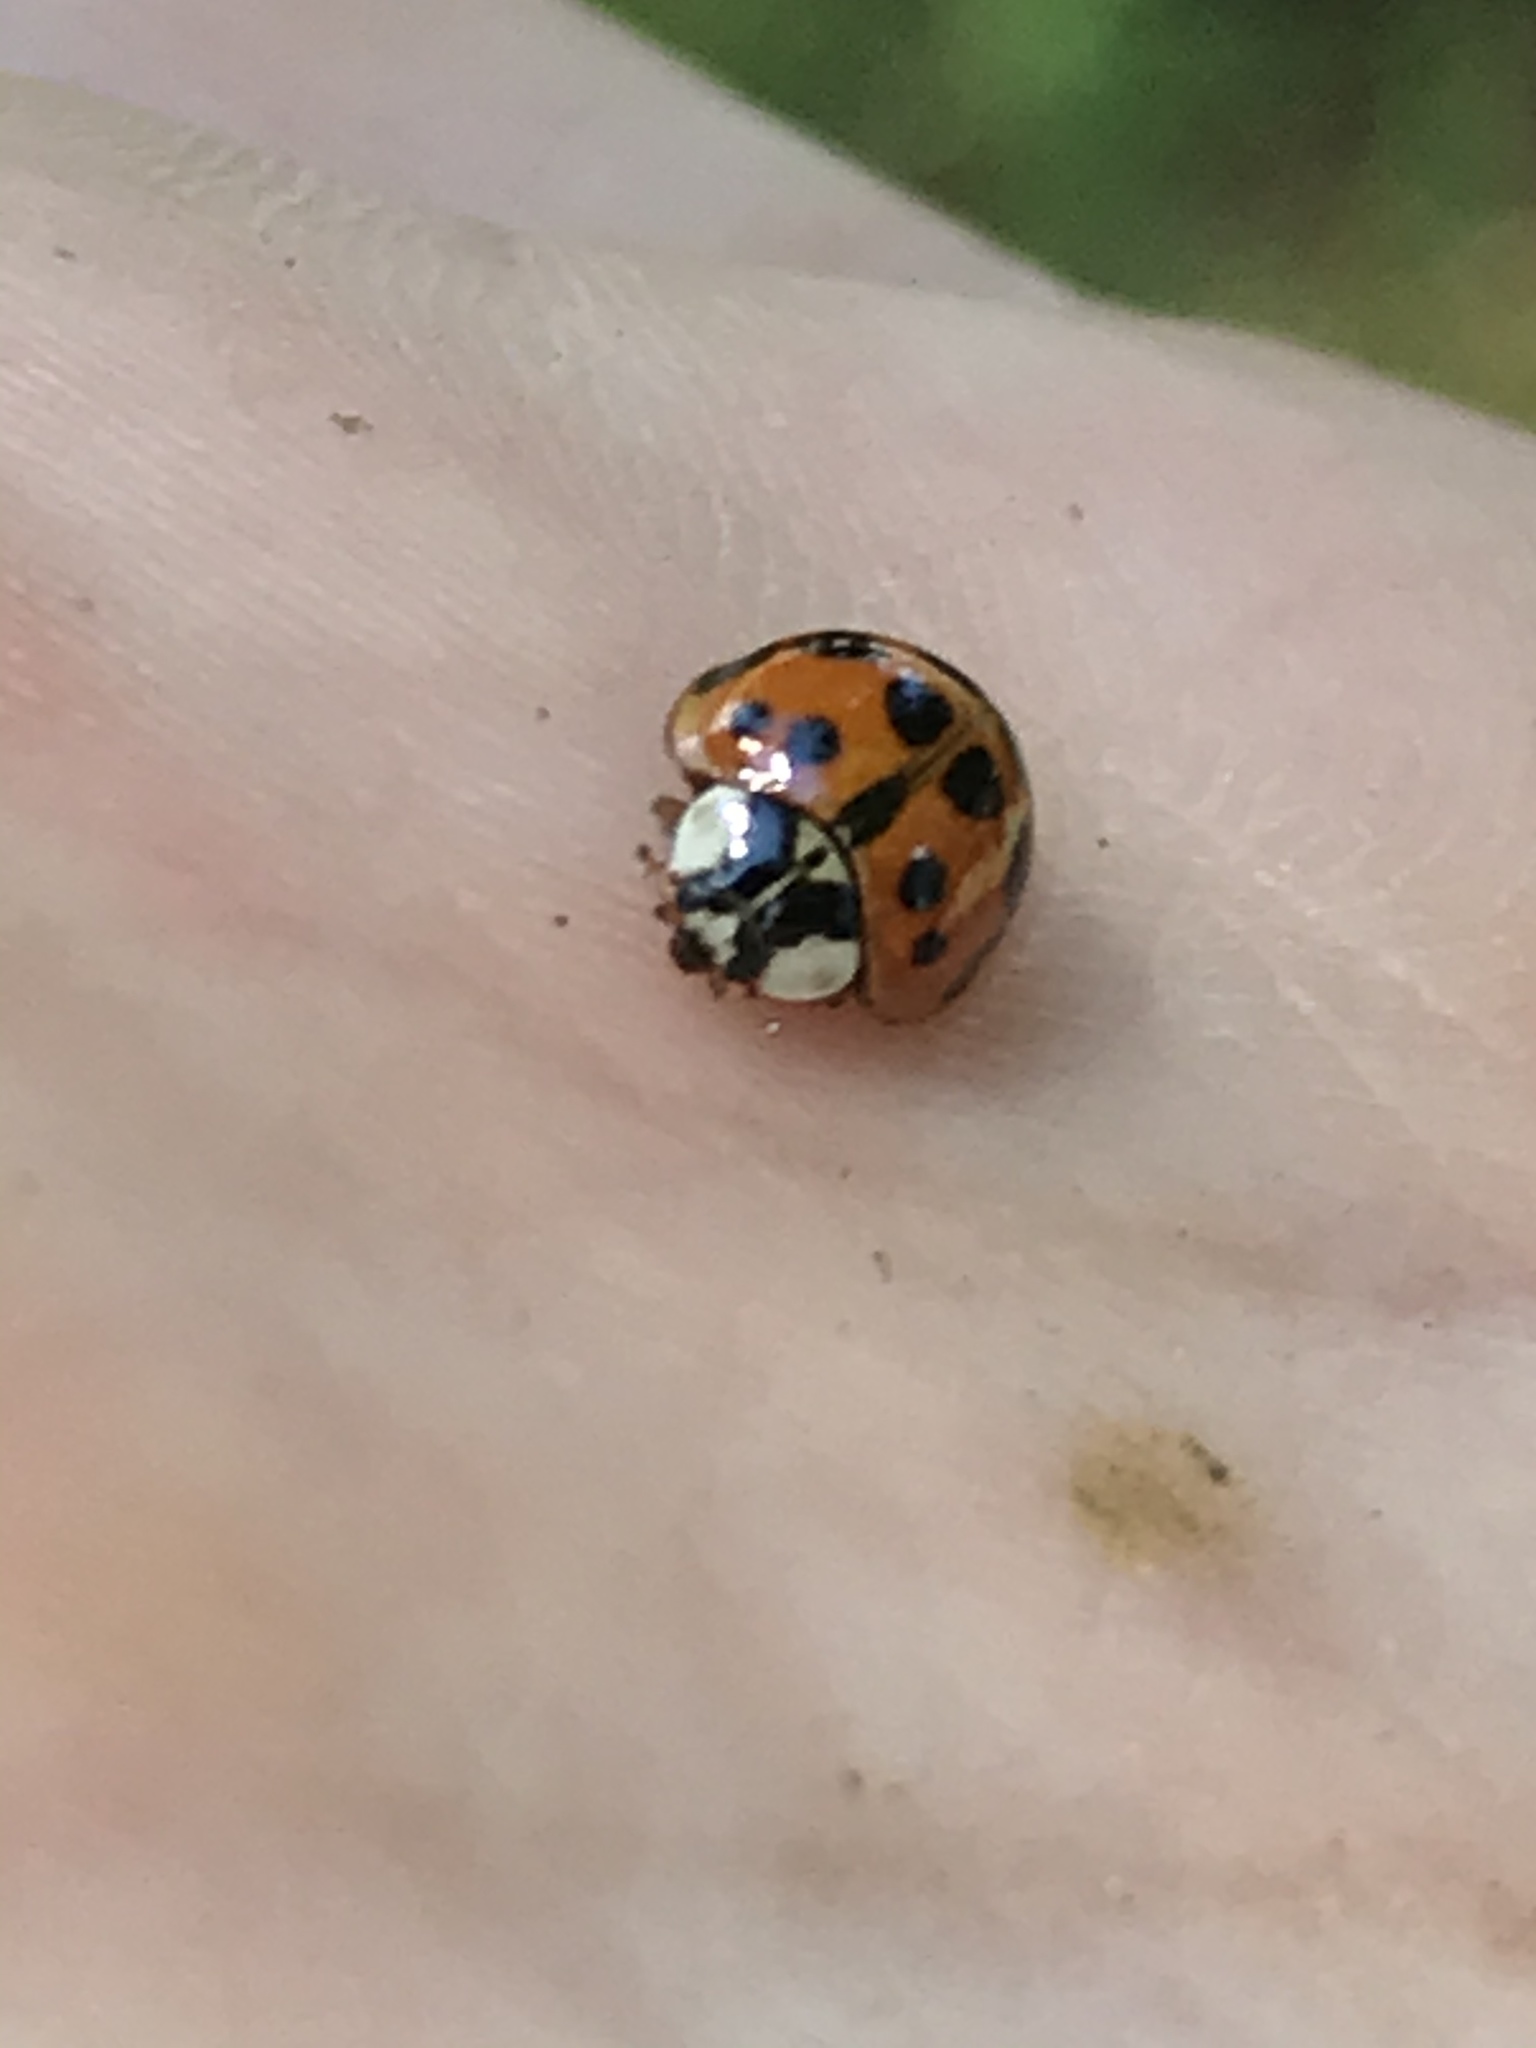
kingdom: Animalia
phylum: Arthropoda
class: Insecta
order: Coleoptera
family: Coccinellidae
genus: Harmonia
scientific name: Harmonia axyridis
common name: Harlequin ladybird
